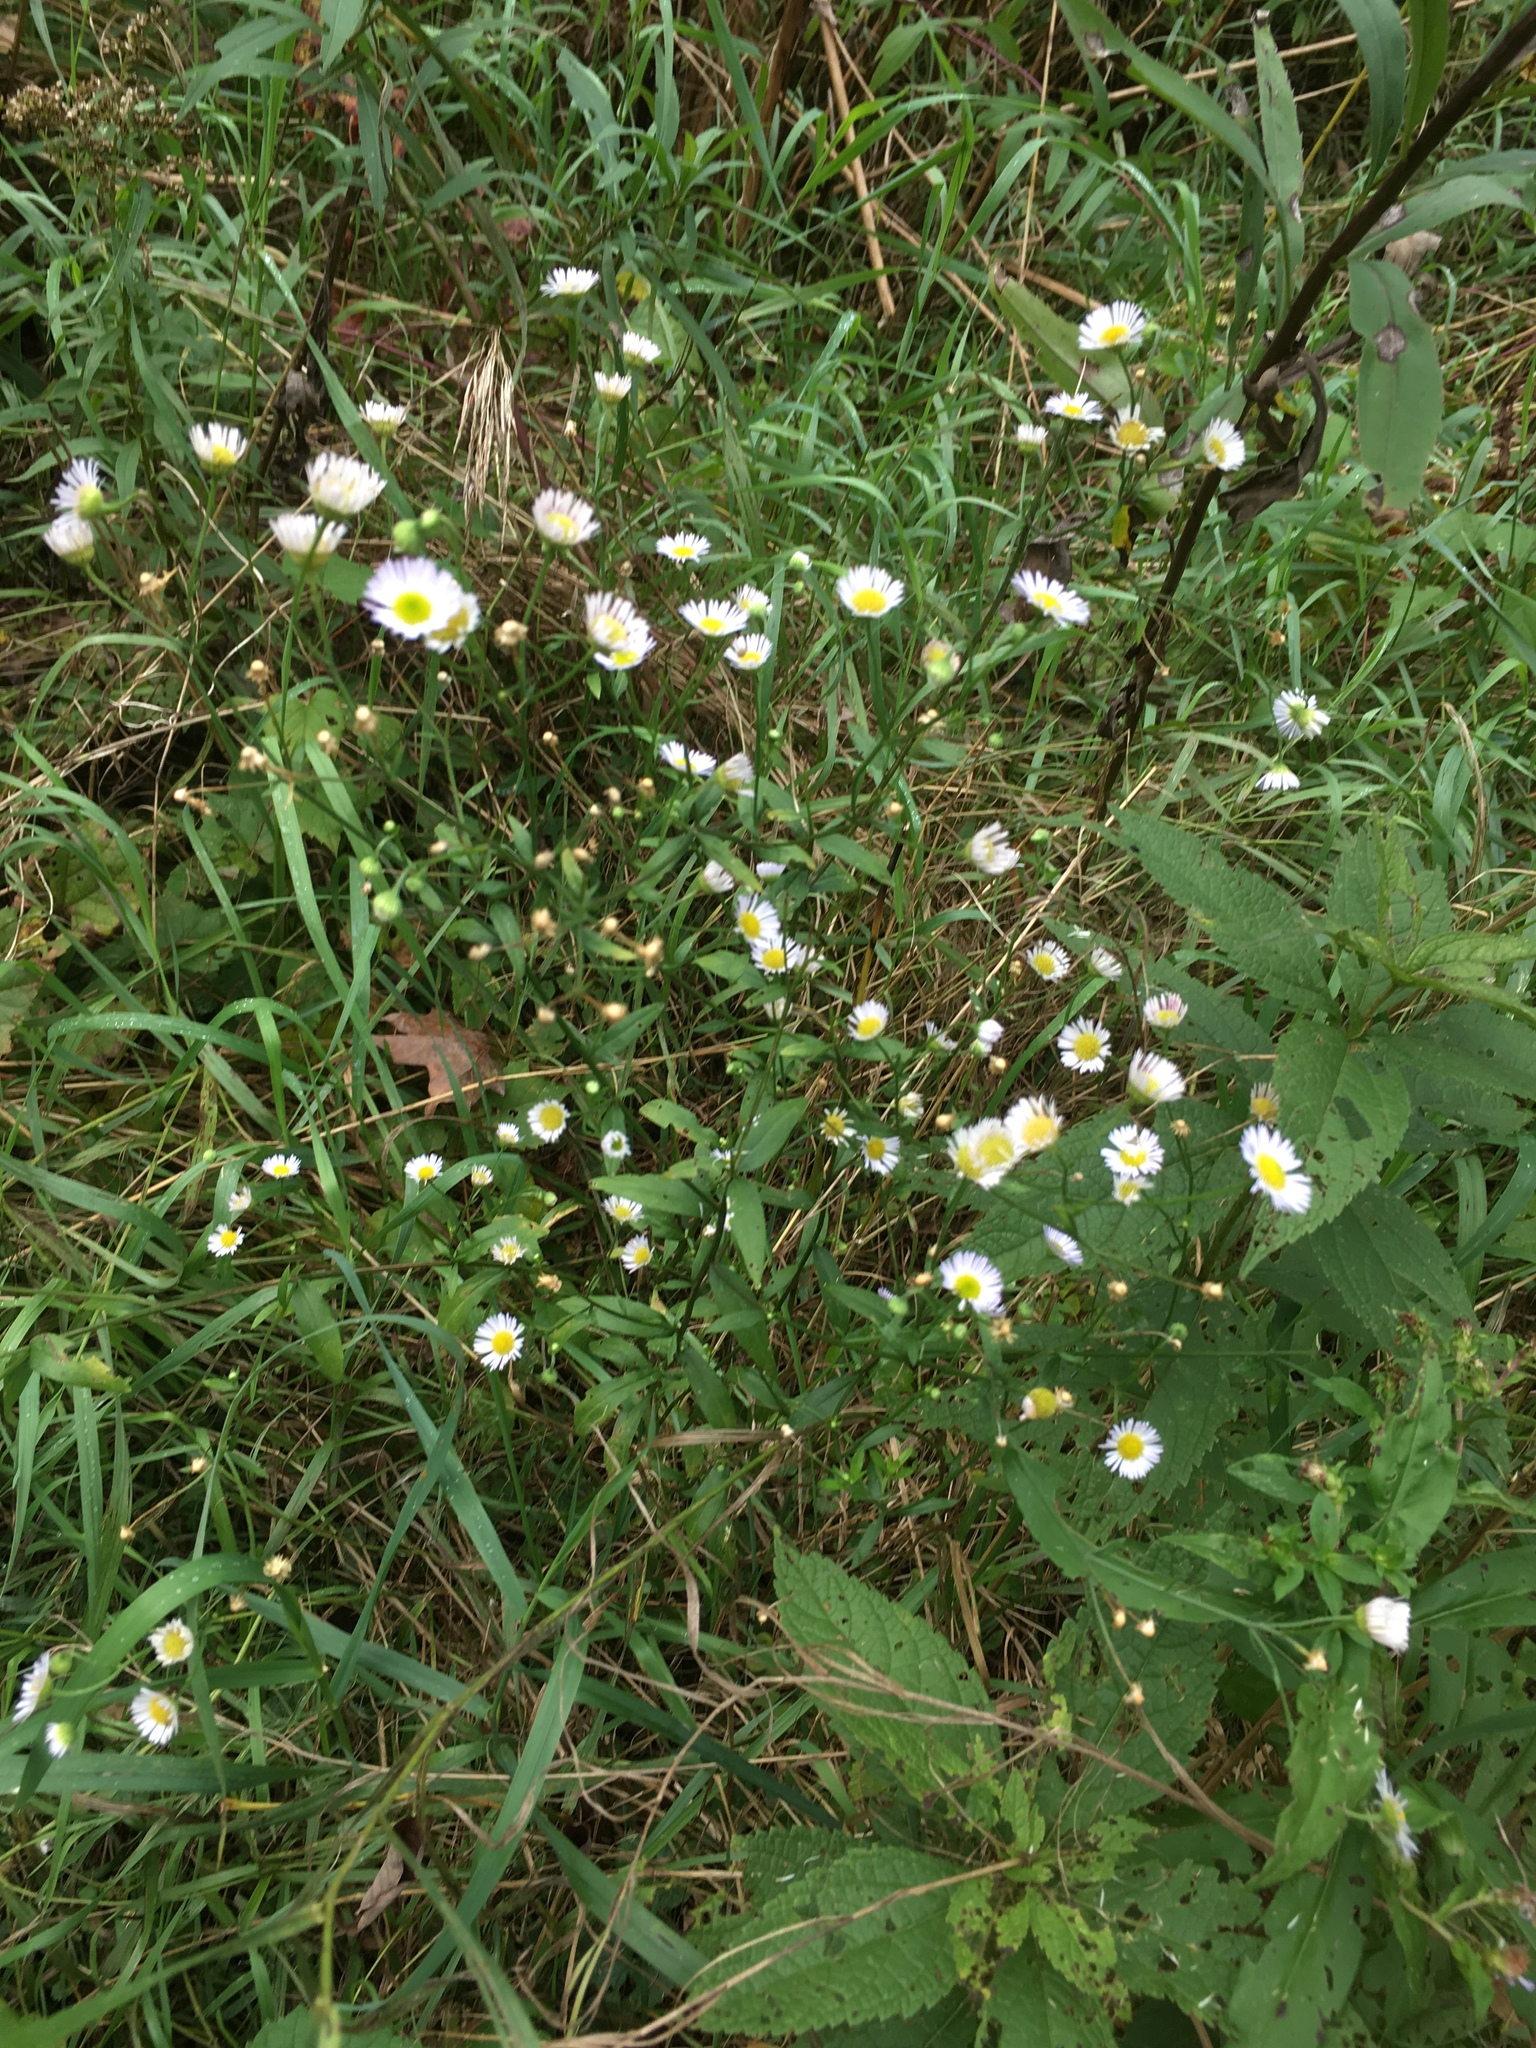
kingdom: Plantae
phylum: Tracheophyta
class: Magnoliopsida
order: Asterales
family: Asteraceae
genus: Erigeron
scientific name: Erigeron strigosus
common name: Common eastern fleabane
